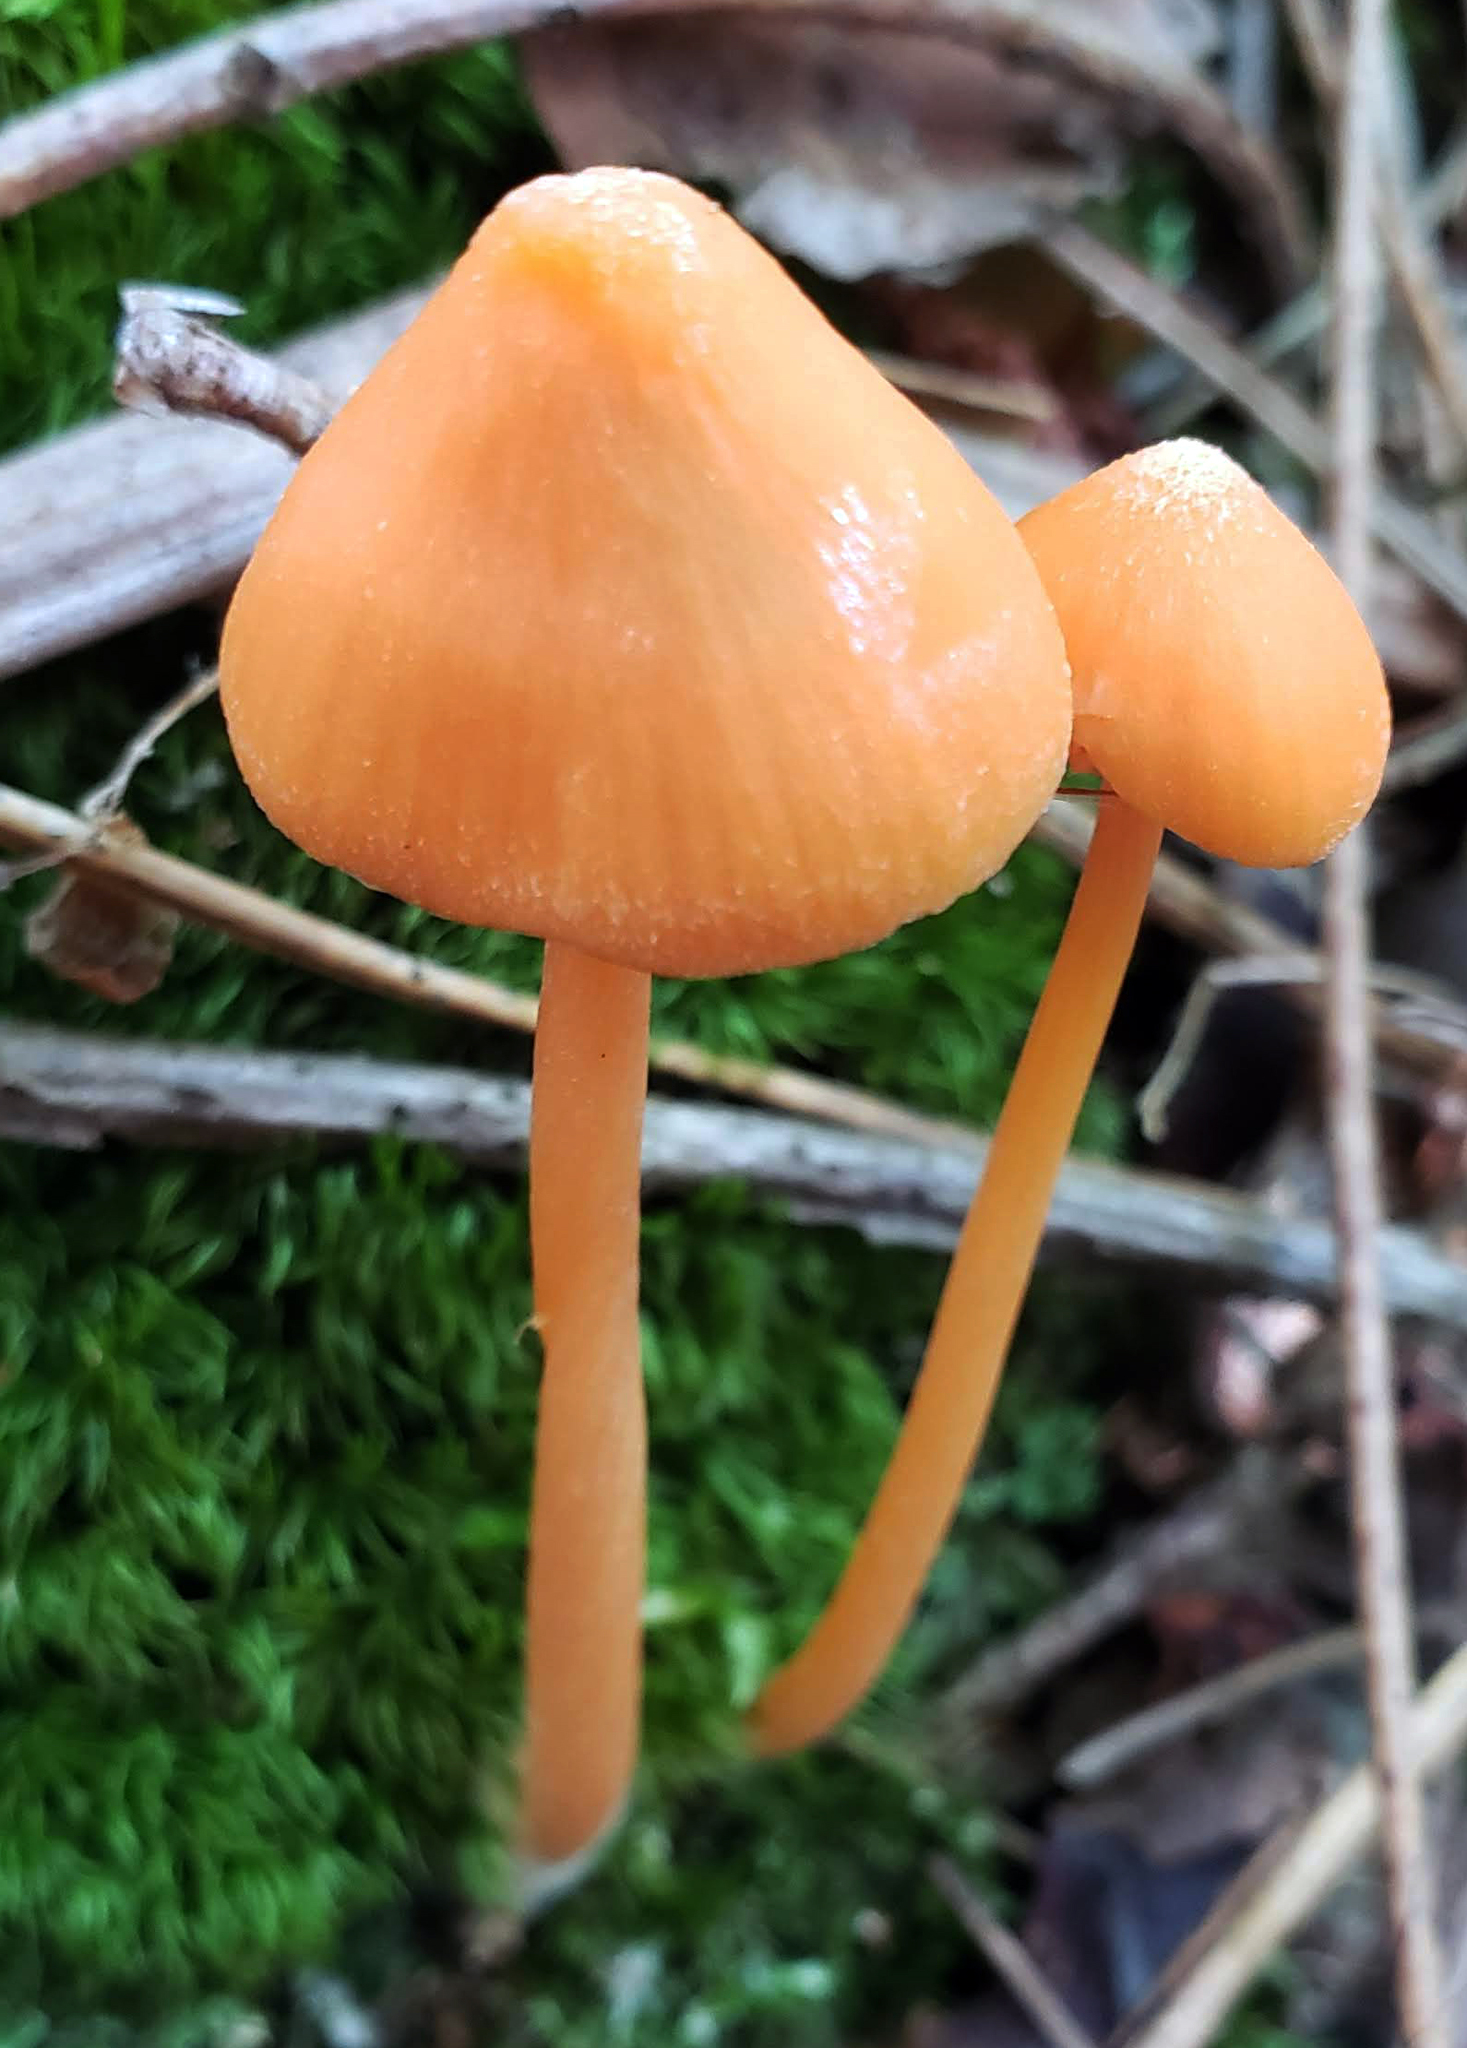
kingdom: Fungi
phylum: Basidiomycota
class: Agaricomycetes
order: Agaricales
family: Entolomataceae
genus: Entoloma
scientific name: Entoloma quadratum
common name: Salmon pinkgill
